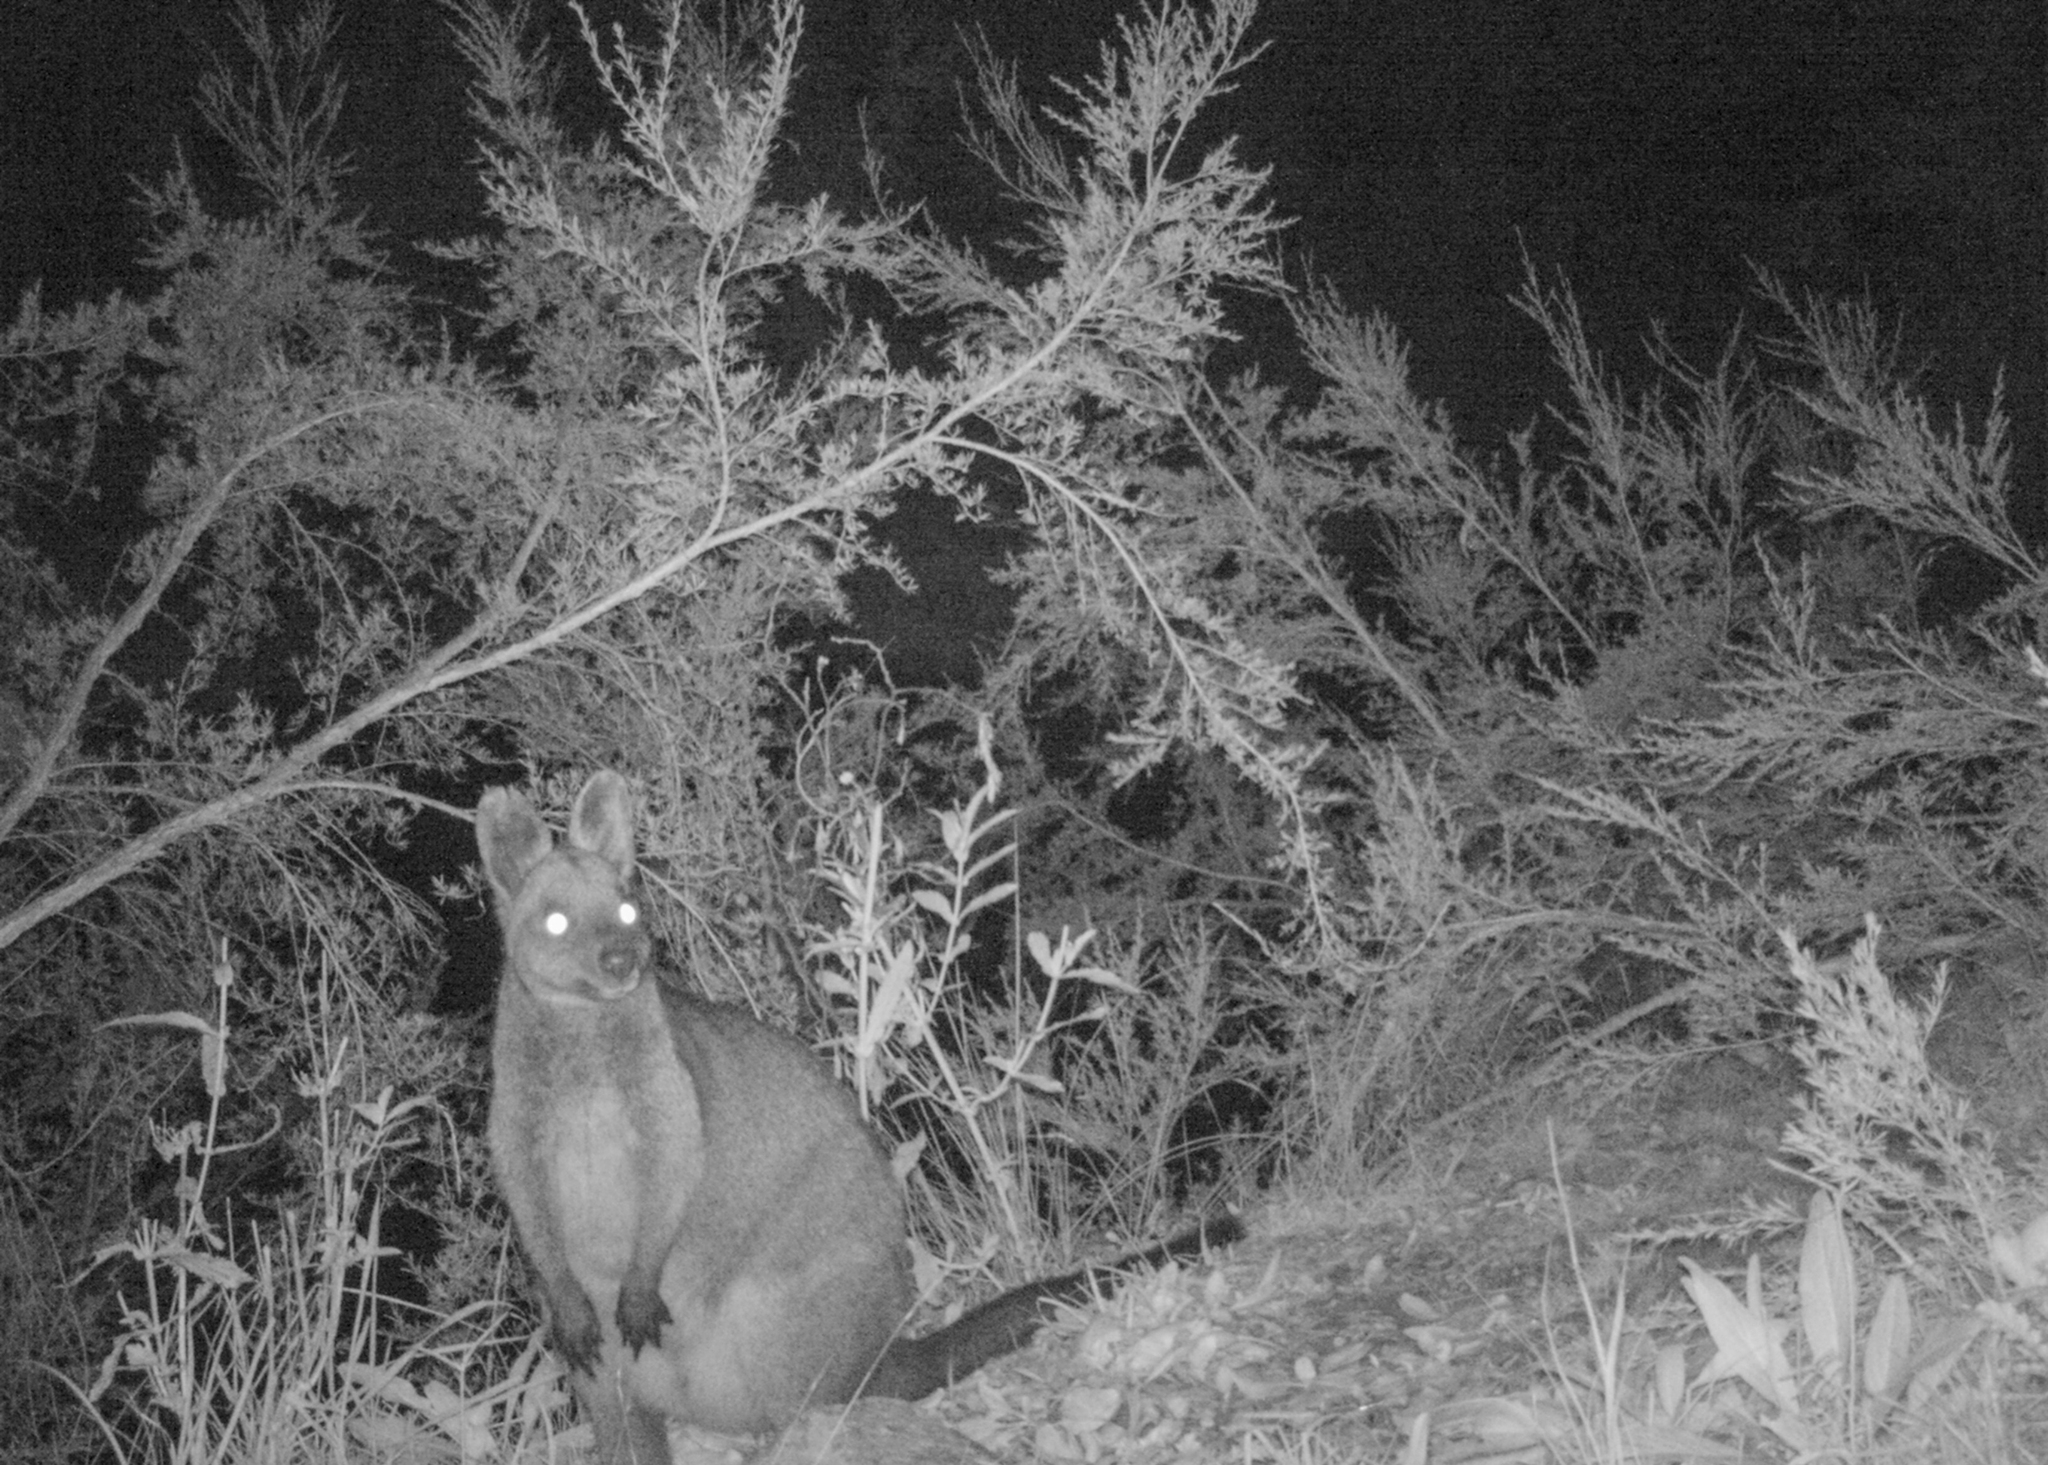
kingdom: Animalia
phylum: Chordata
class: Mammalia
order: Diprotodontia
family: Macropodidae
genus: Wallabia
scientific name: Wallabia bicolor
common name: Swamp wallaby
